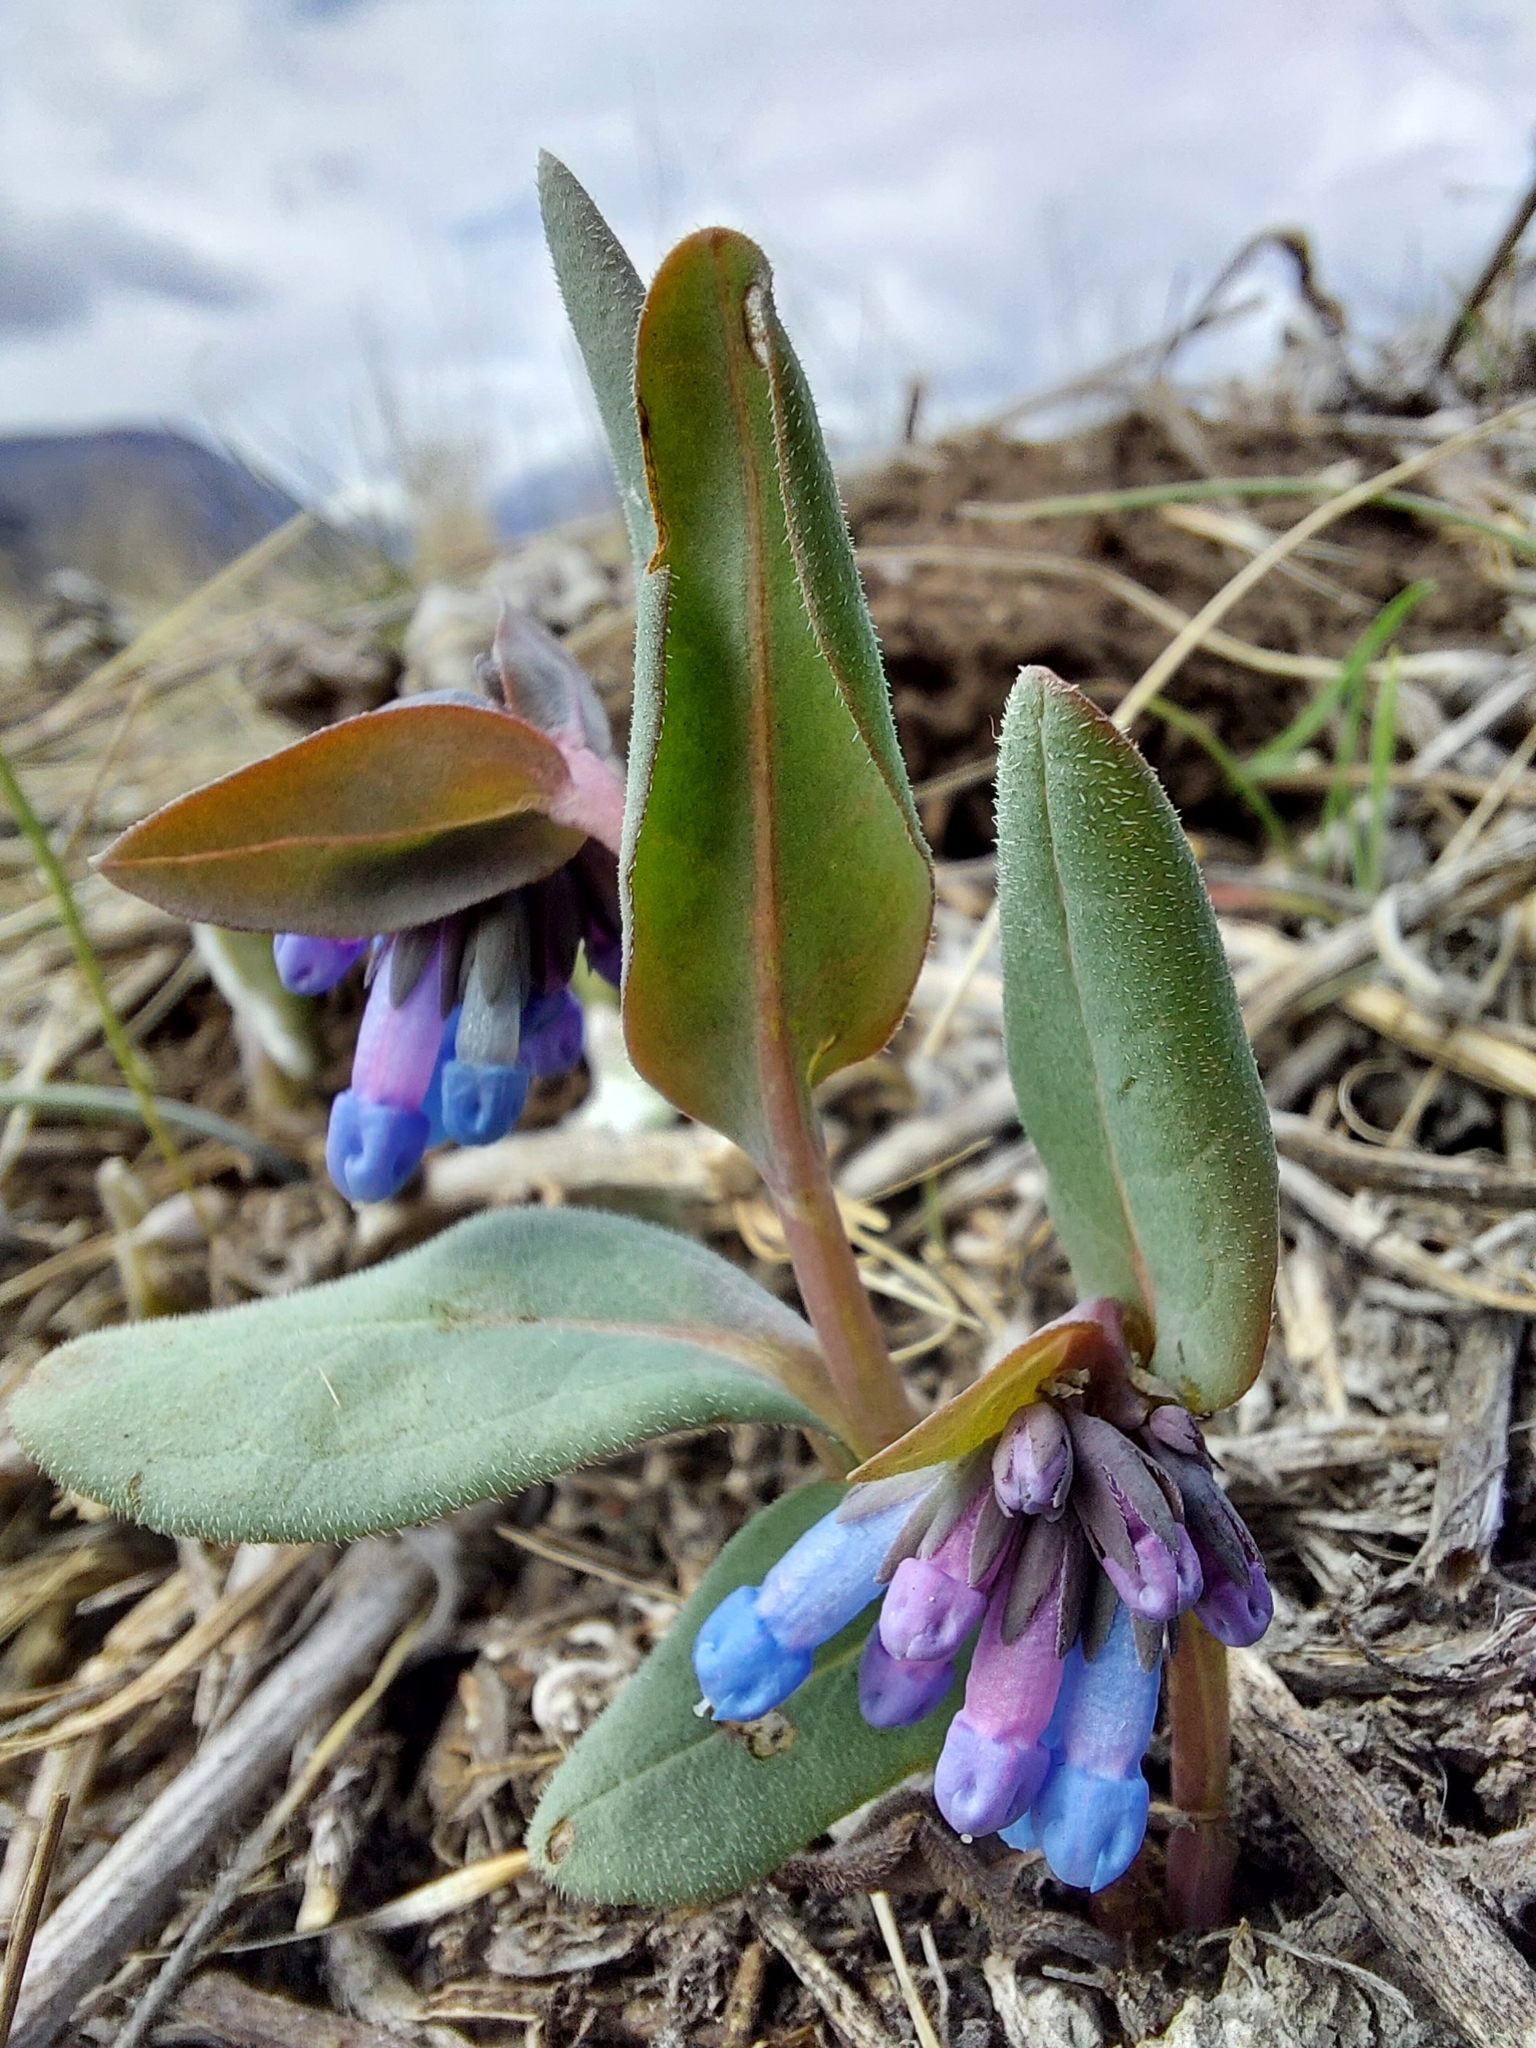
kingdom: Plantae
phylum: Tracheophyta
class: Magnoliopsida
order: Boraginales
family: Boraginaceae
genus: Mertensia
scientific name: Mertensia longiflora
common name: Large-flowered bluebells
